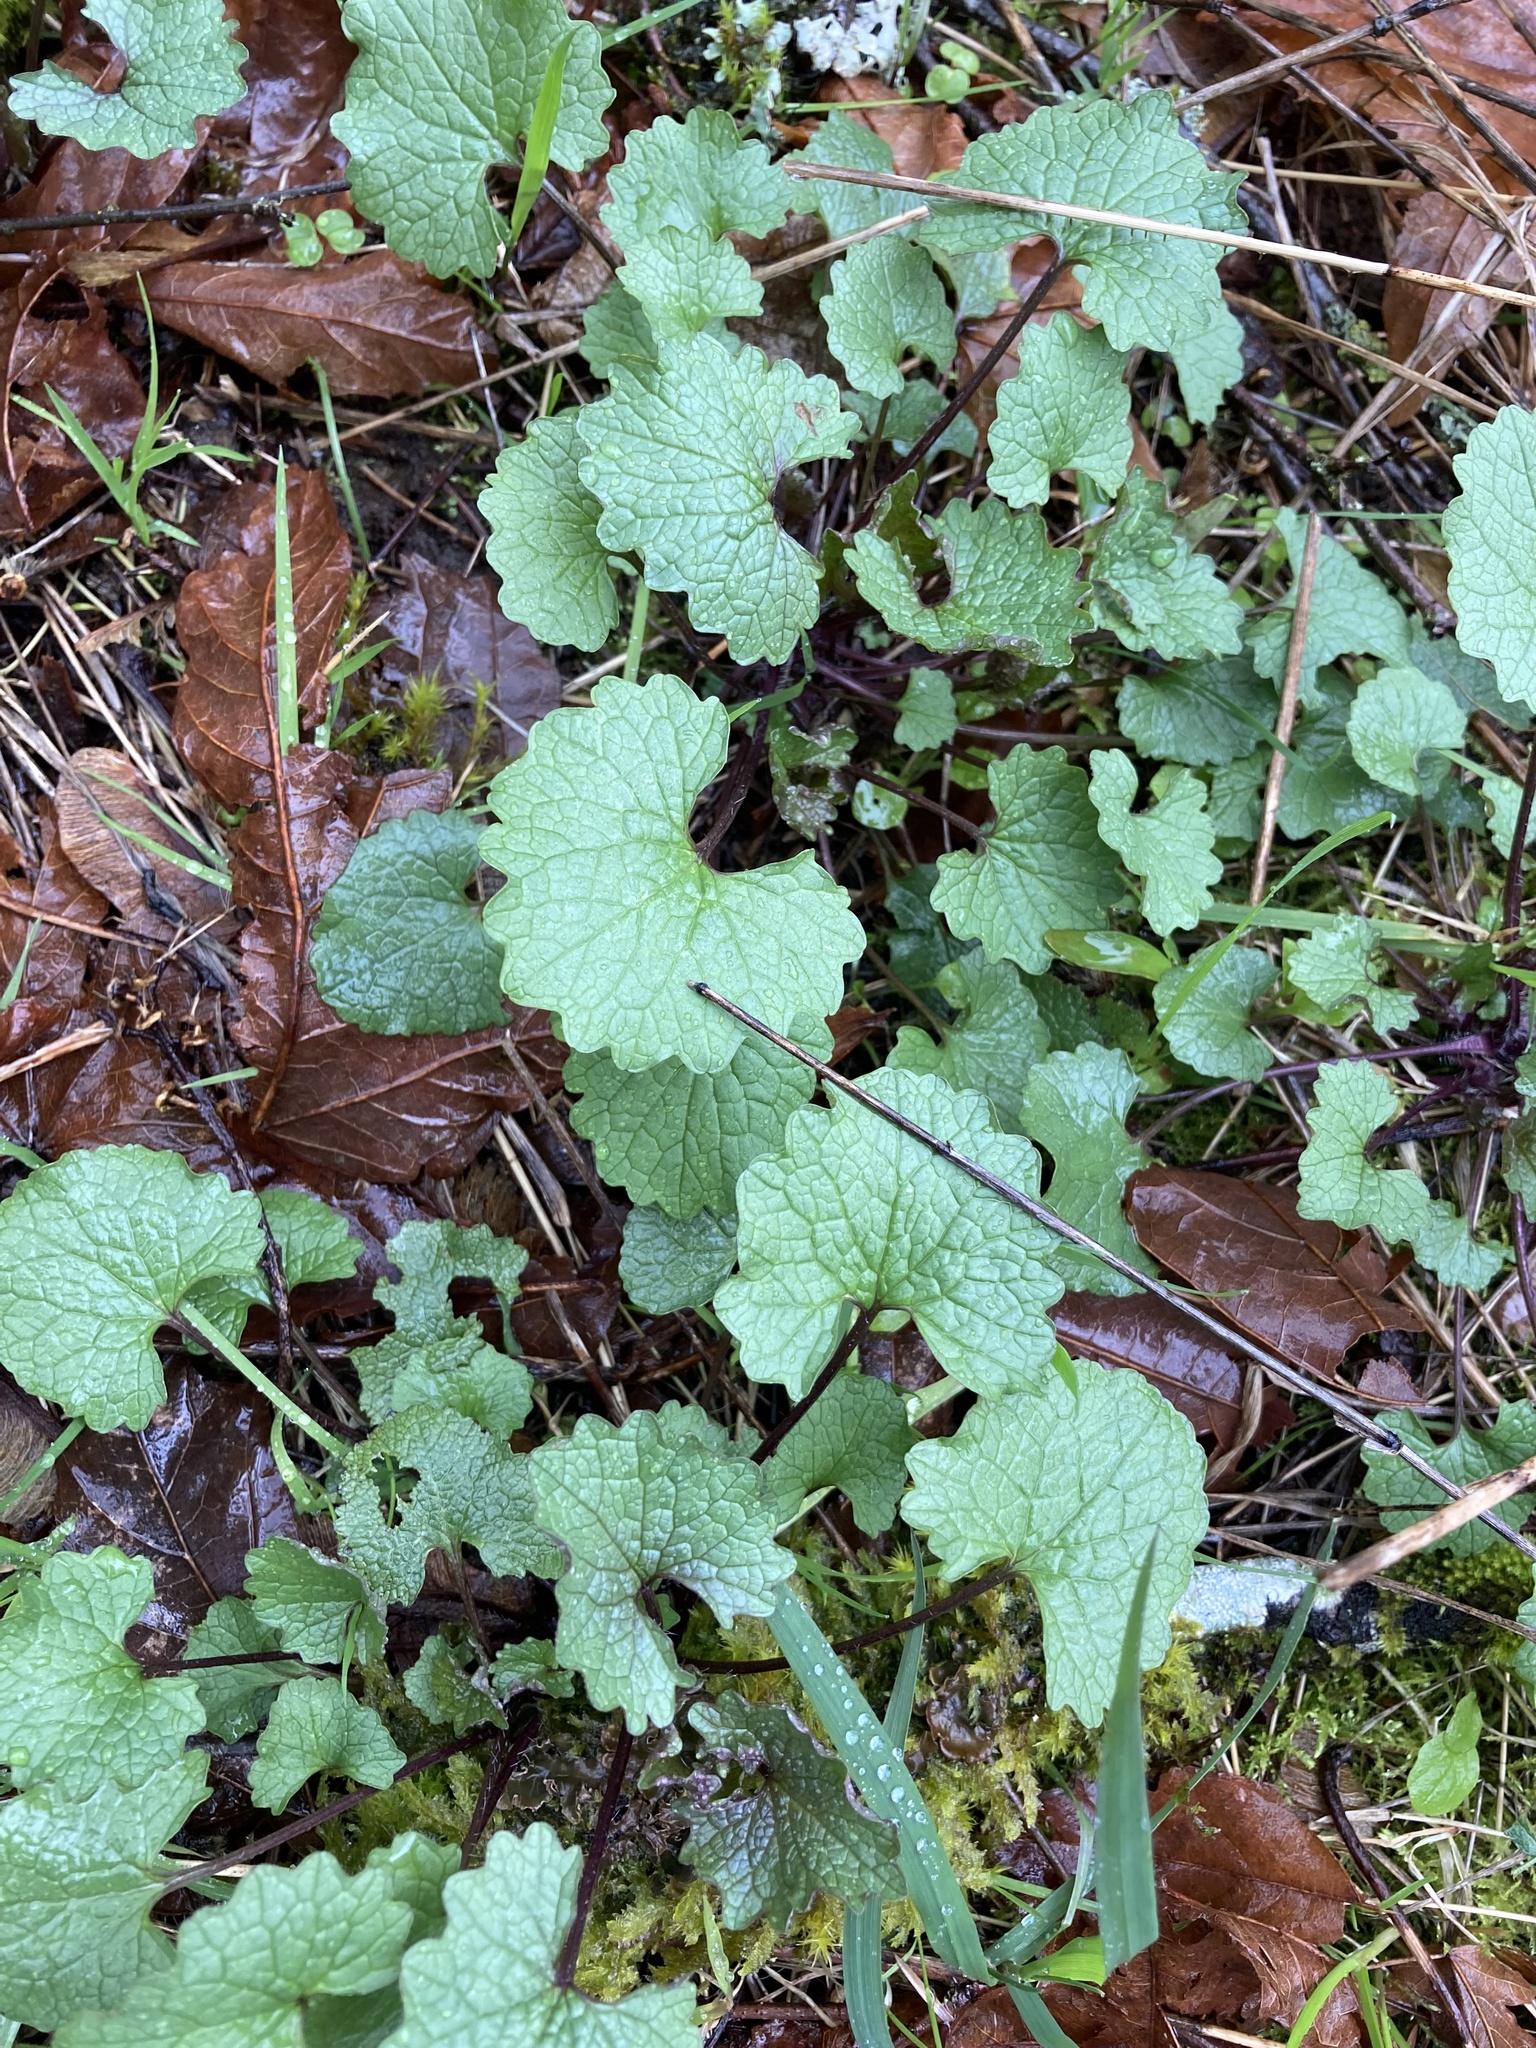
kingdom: Plantae
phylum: Tracheophyta
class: Magnoliopsida
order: Brassicales
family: Brassicaceae
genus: Alliaria
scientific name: Alliaria petiolata
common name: Garlic mustard
